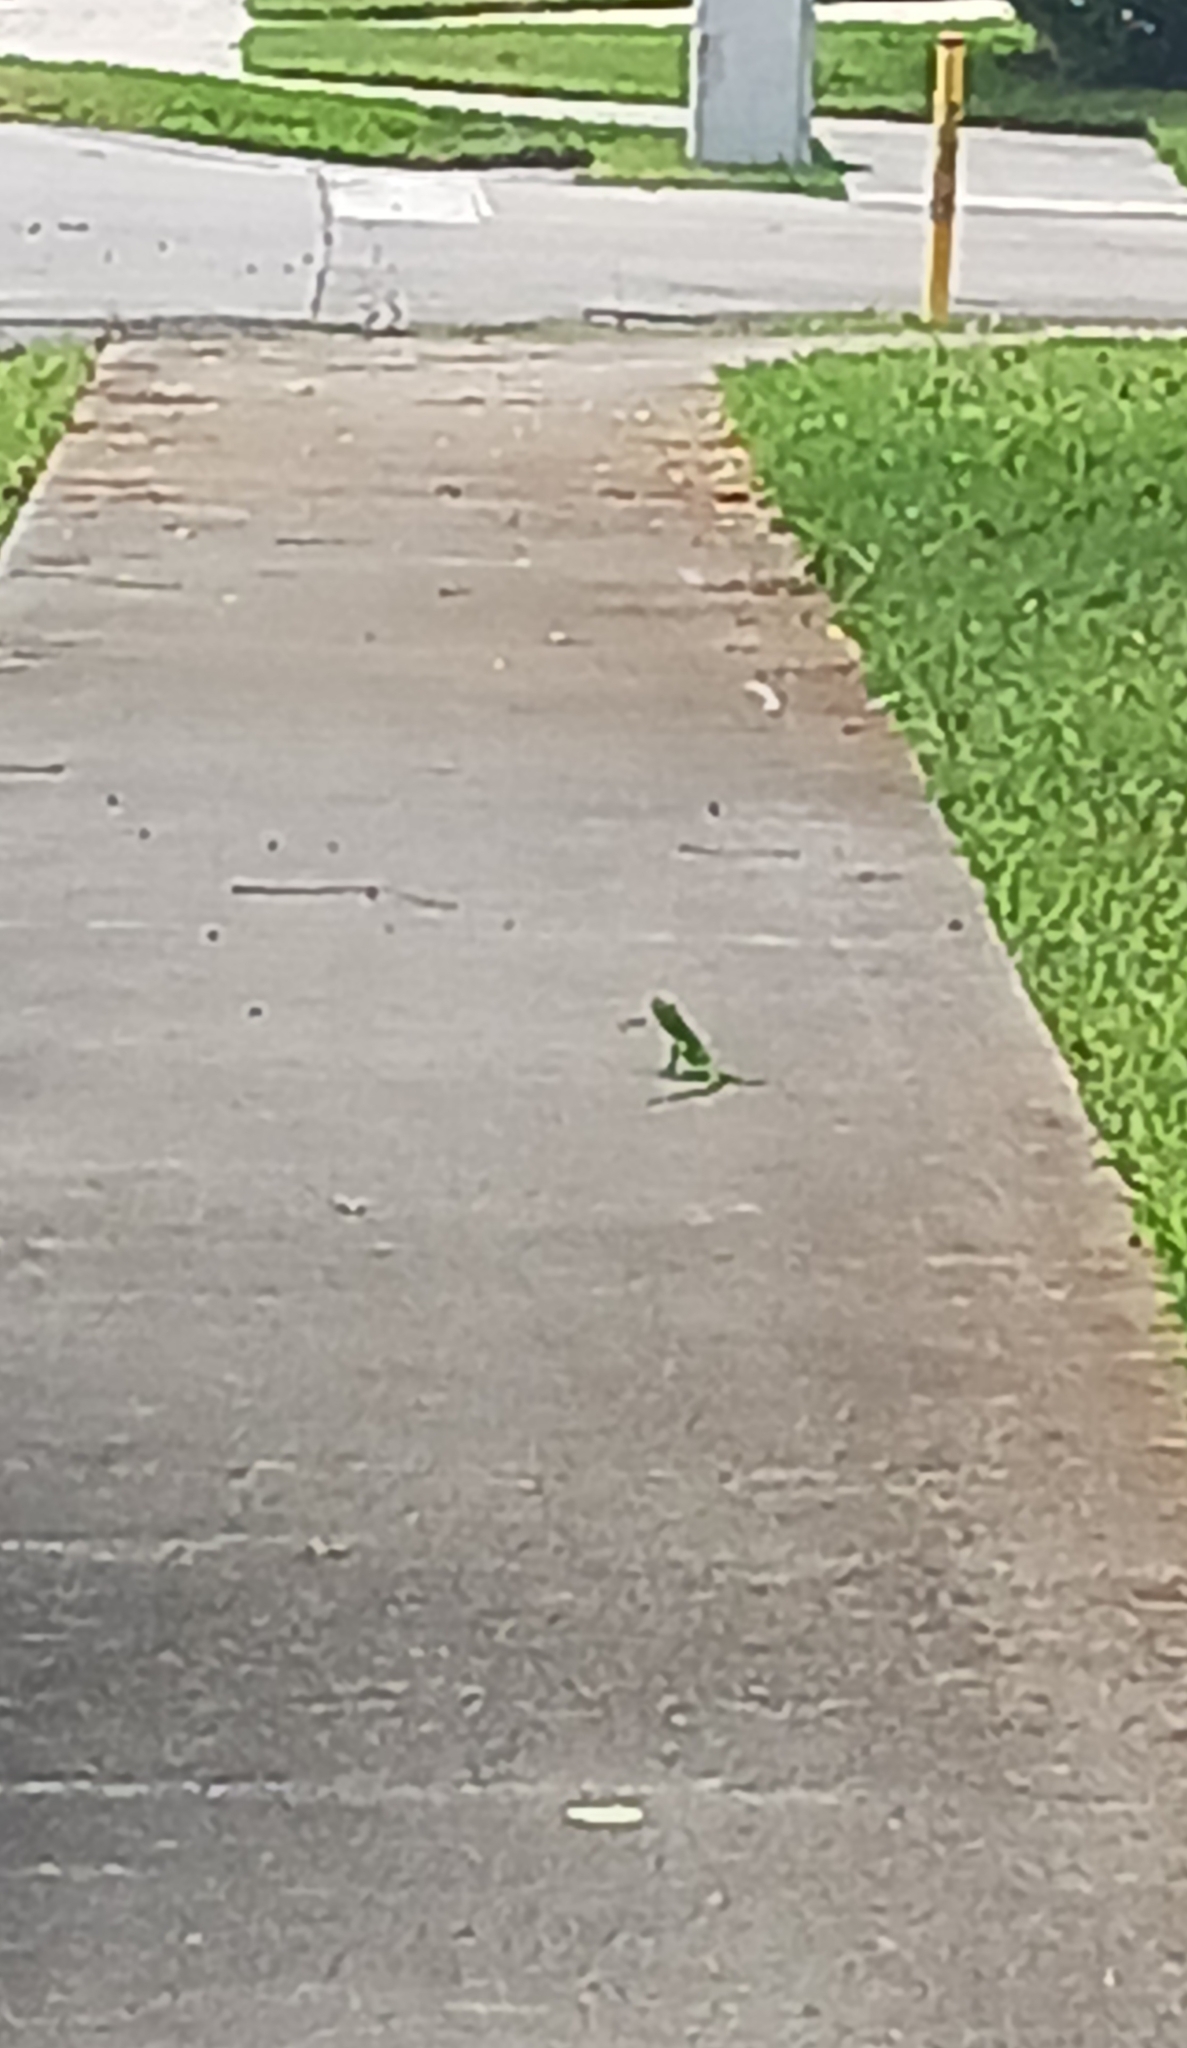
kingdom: Animalia
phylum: Chordata
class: Squamata
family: Dactyloidae
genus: Anolis
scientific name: Anolis equestris
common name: Knight anole
